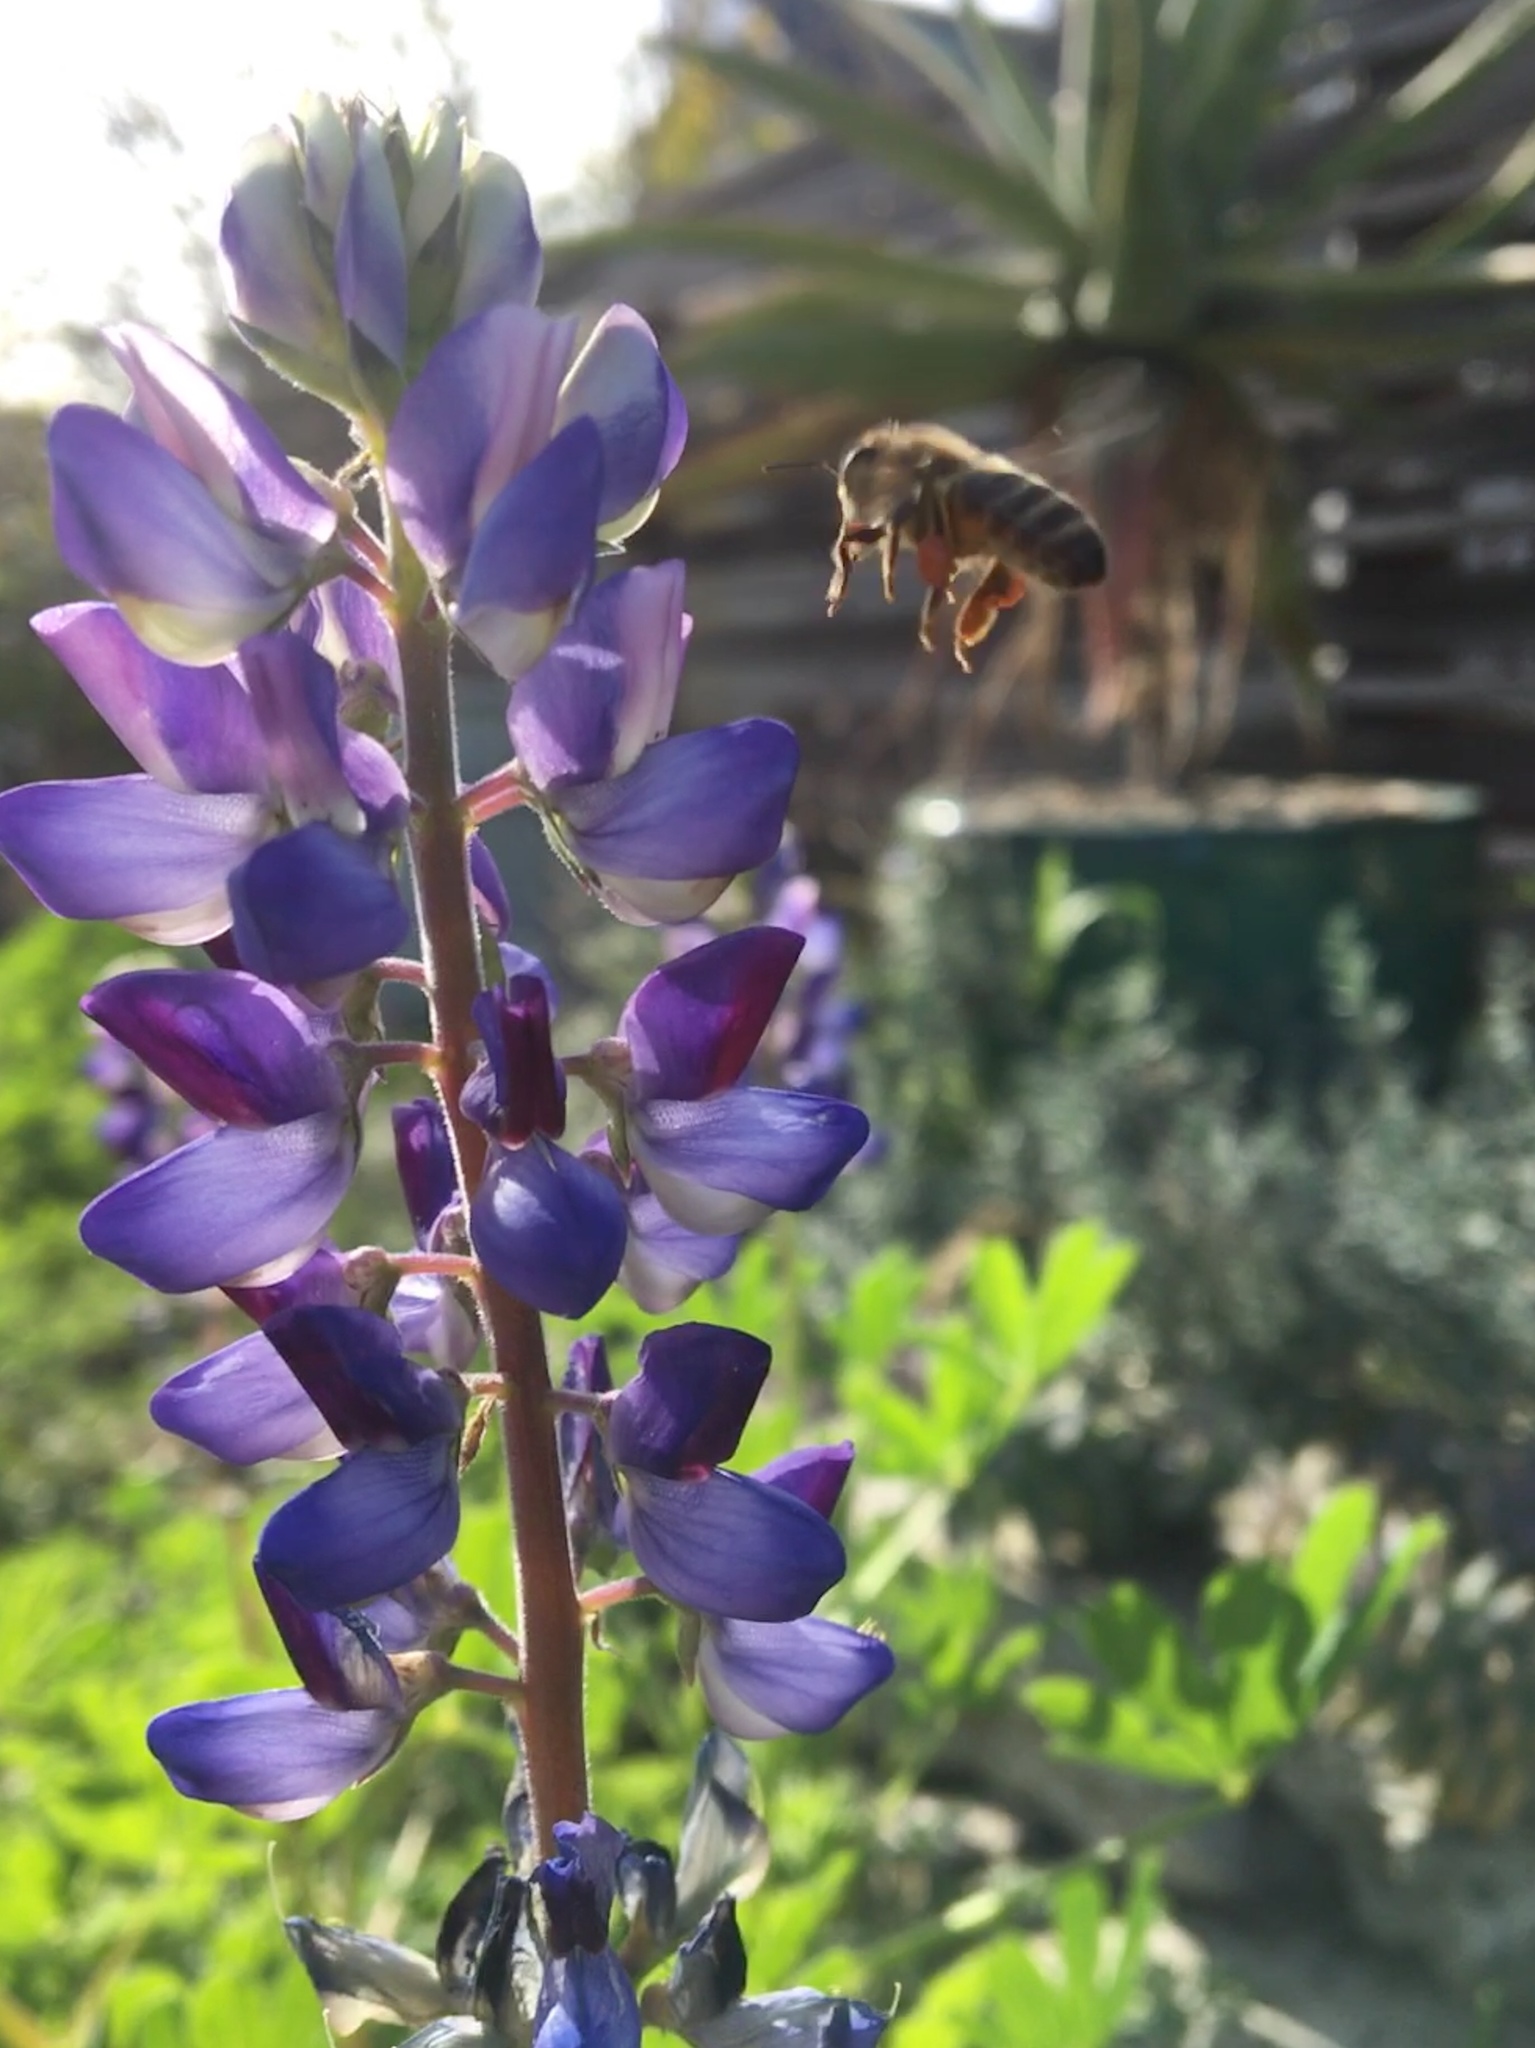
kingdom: Animalia
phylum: Arthropoda
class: Insecta
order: Hymenoptera
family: Apidae
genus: Apis
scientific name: Apis mellifera
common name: Honey bee
